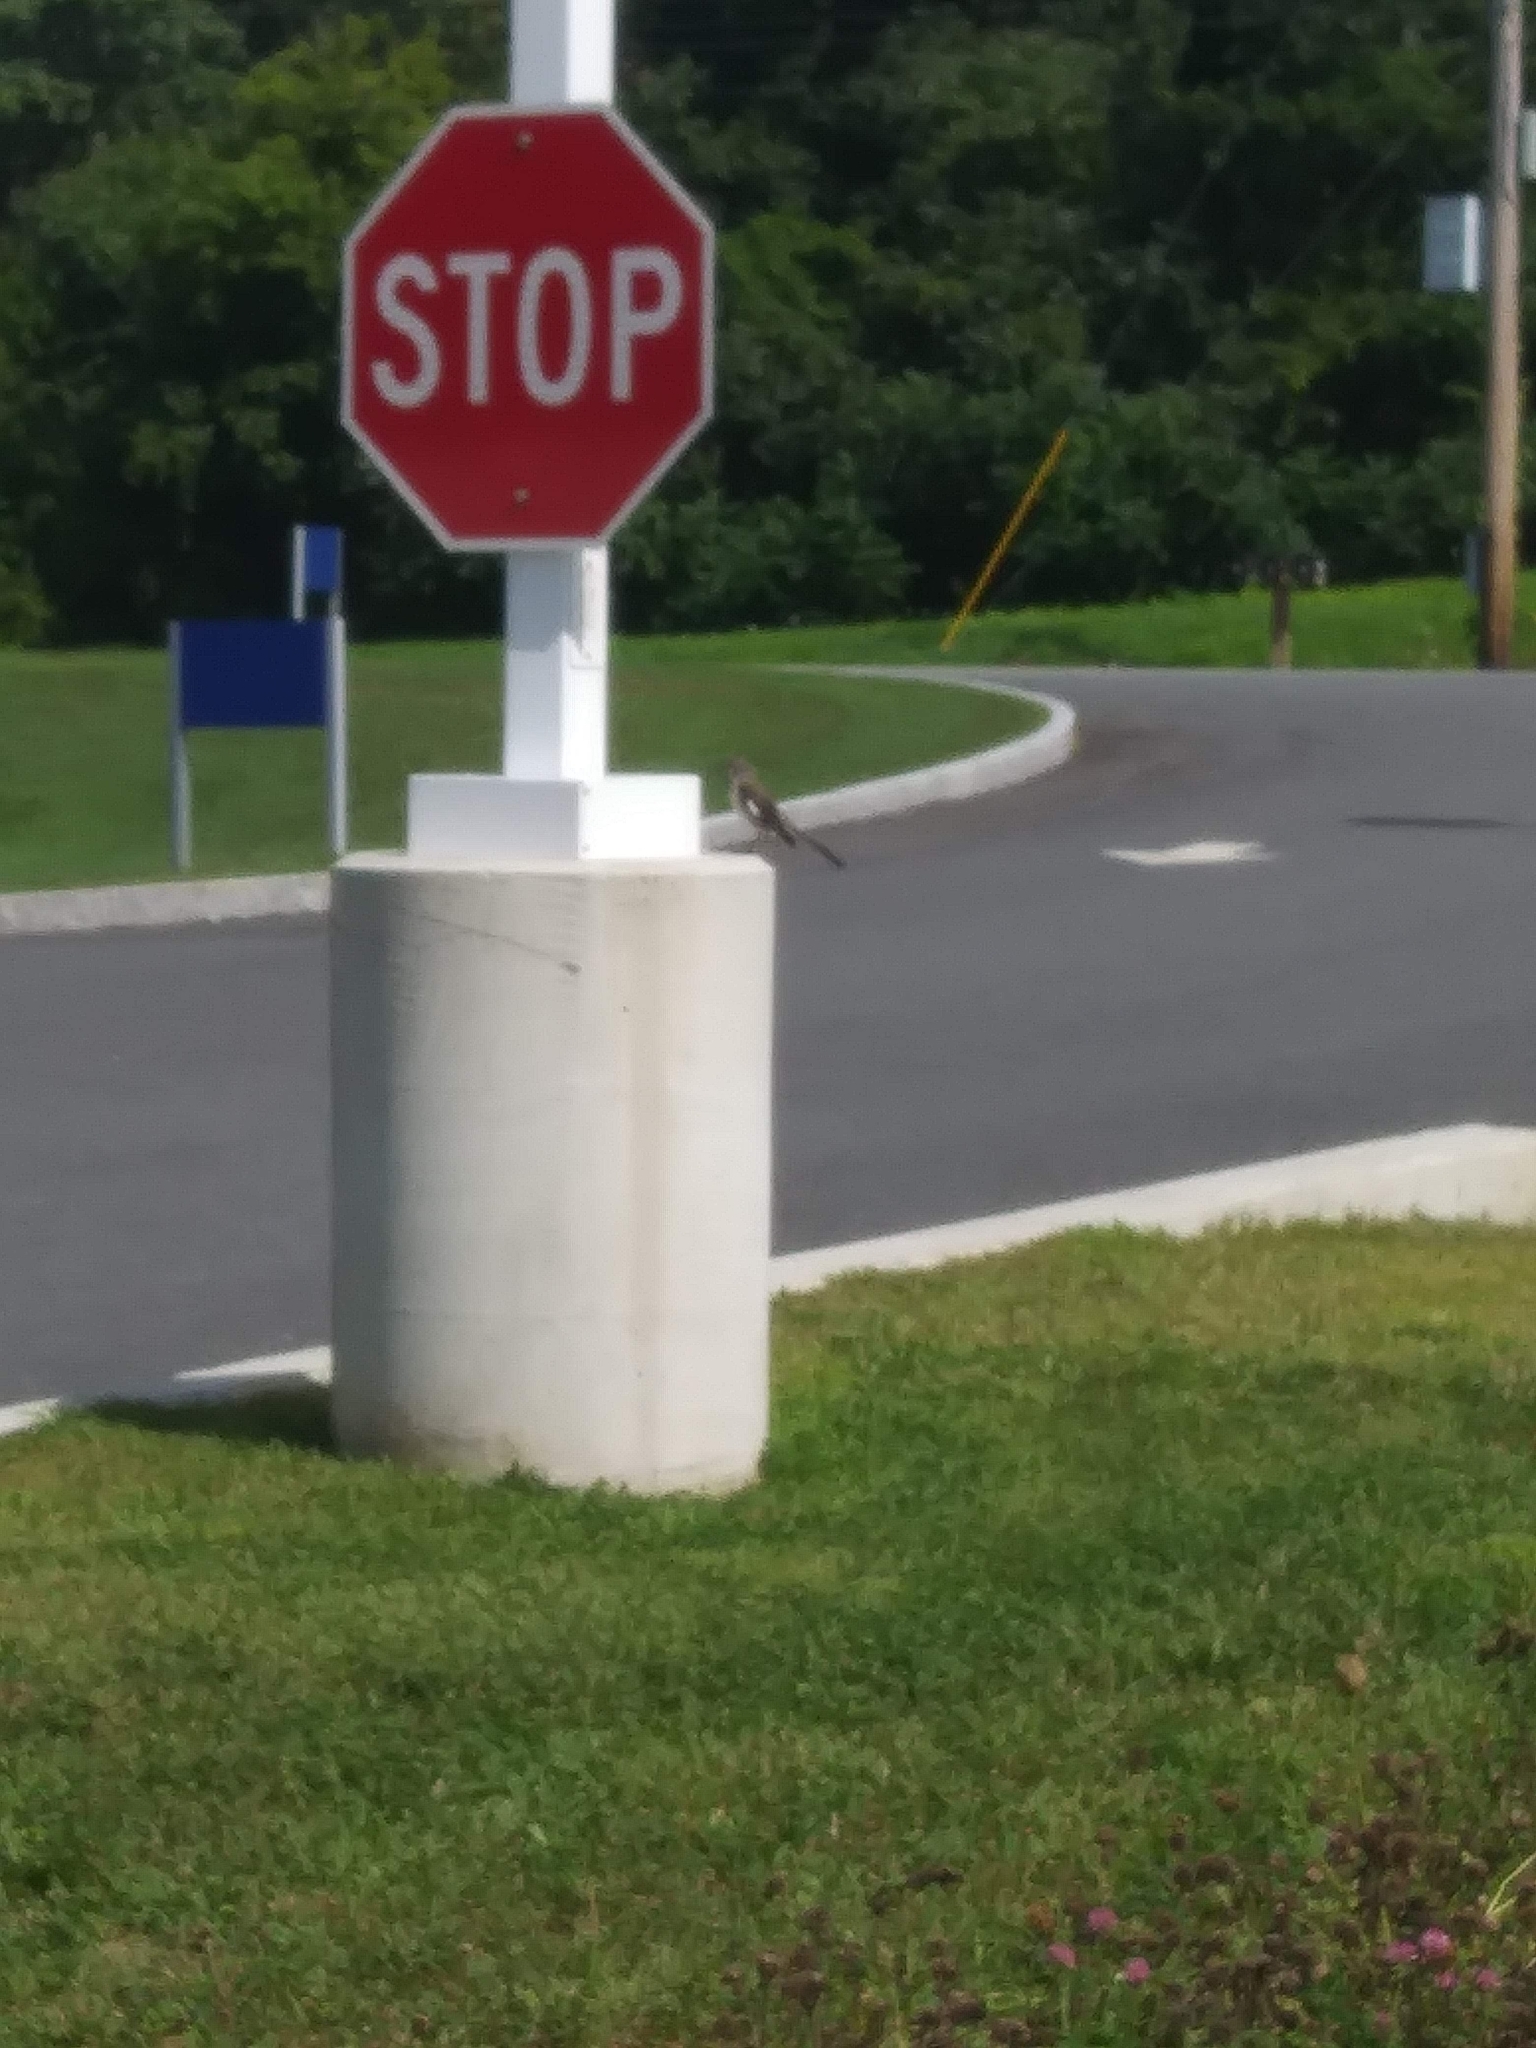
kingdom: Animalia
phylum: Chordata
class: Aves
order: Passeriformes
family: Mimidae
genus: Mimus
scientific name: Mimus polyglottos
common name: Northern mockingbird
